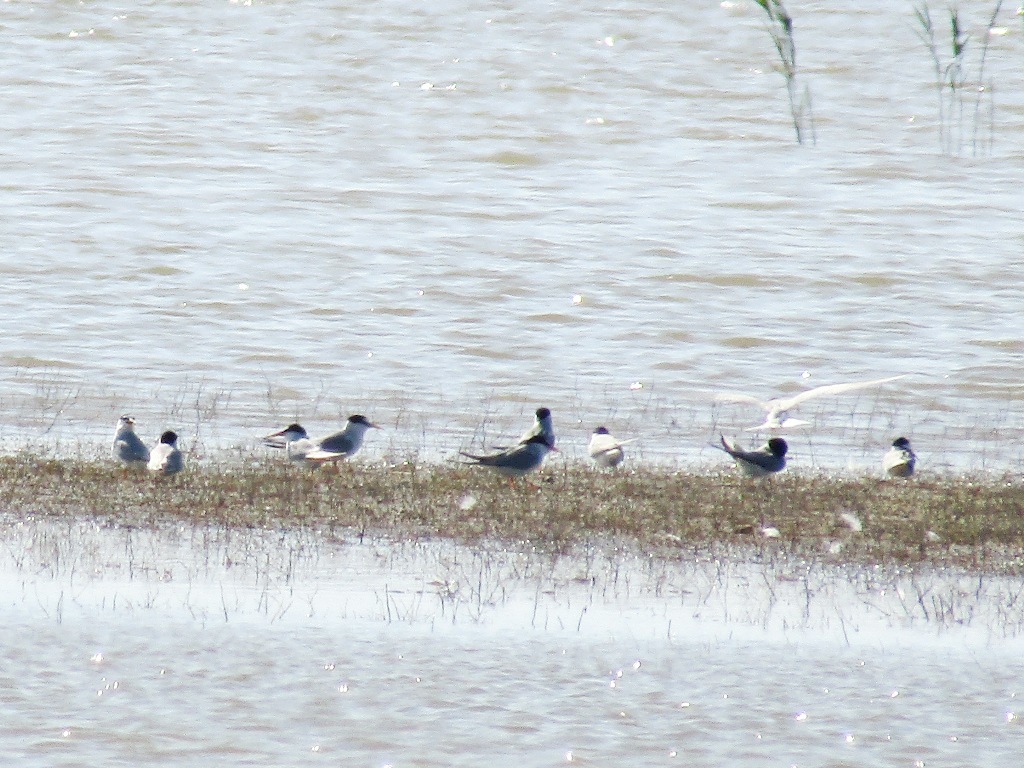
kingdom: Animalia
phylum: Chordata
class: Aves
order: Charadriiformes
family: Laridae
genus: Sternula
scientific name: Sternula albifrons
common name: Little tern
